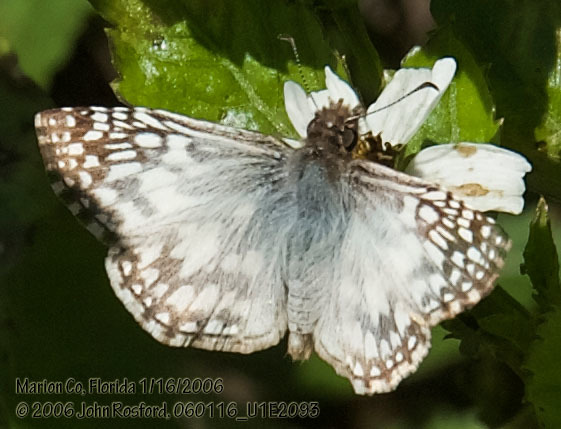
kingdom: Animalia
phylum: Arthropoda
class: Insecta
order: Lepidoptera
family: Hesperiidae
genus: Pyrgus
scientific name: Pyrgus oileus
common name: Tropical checkered-skipper
